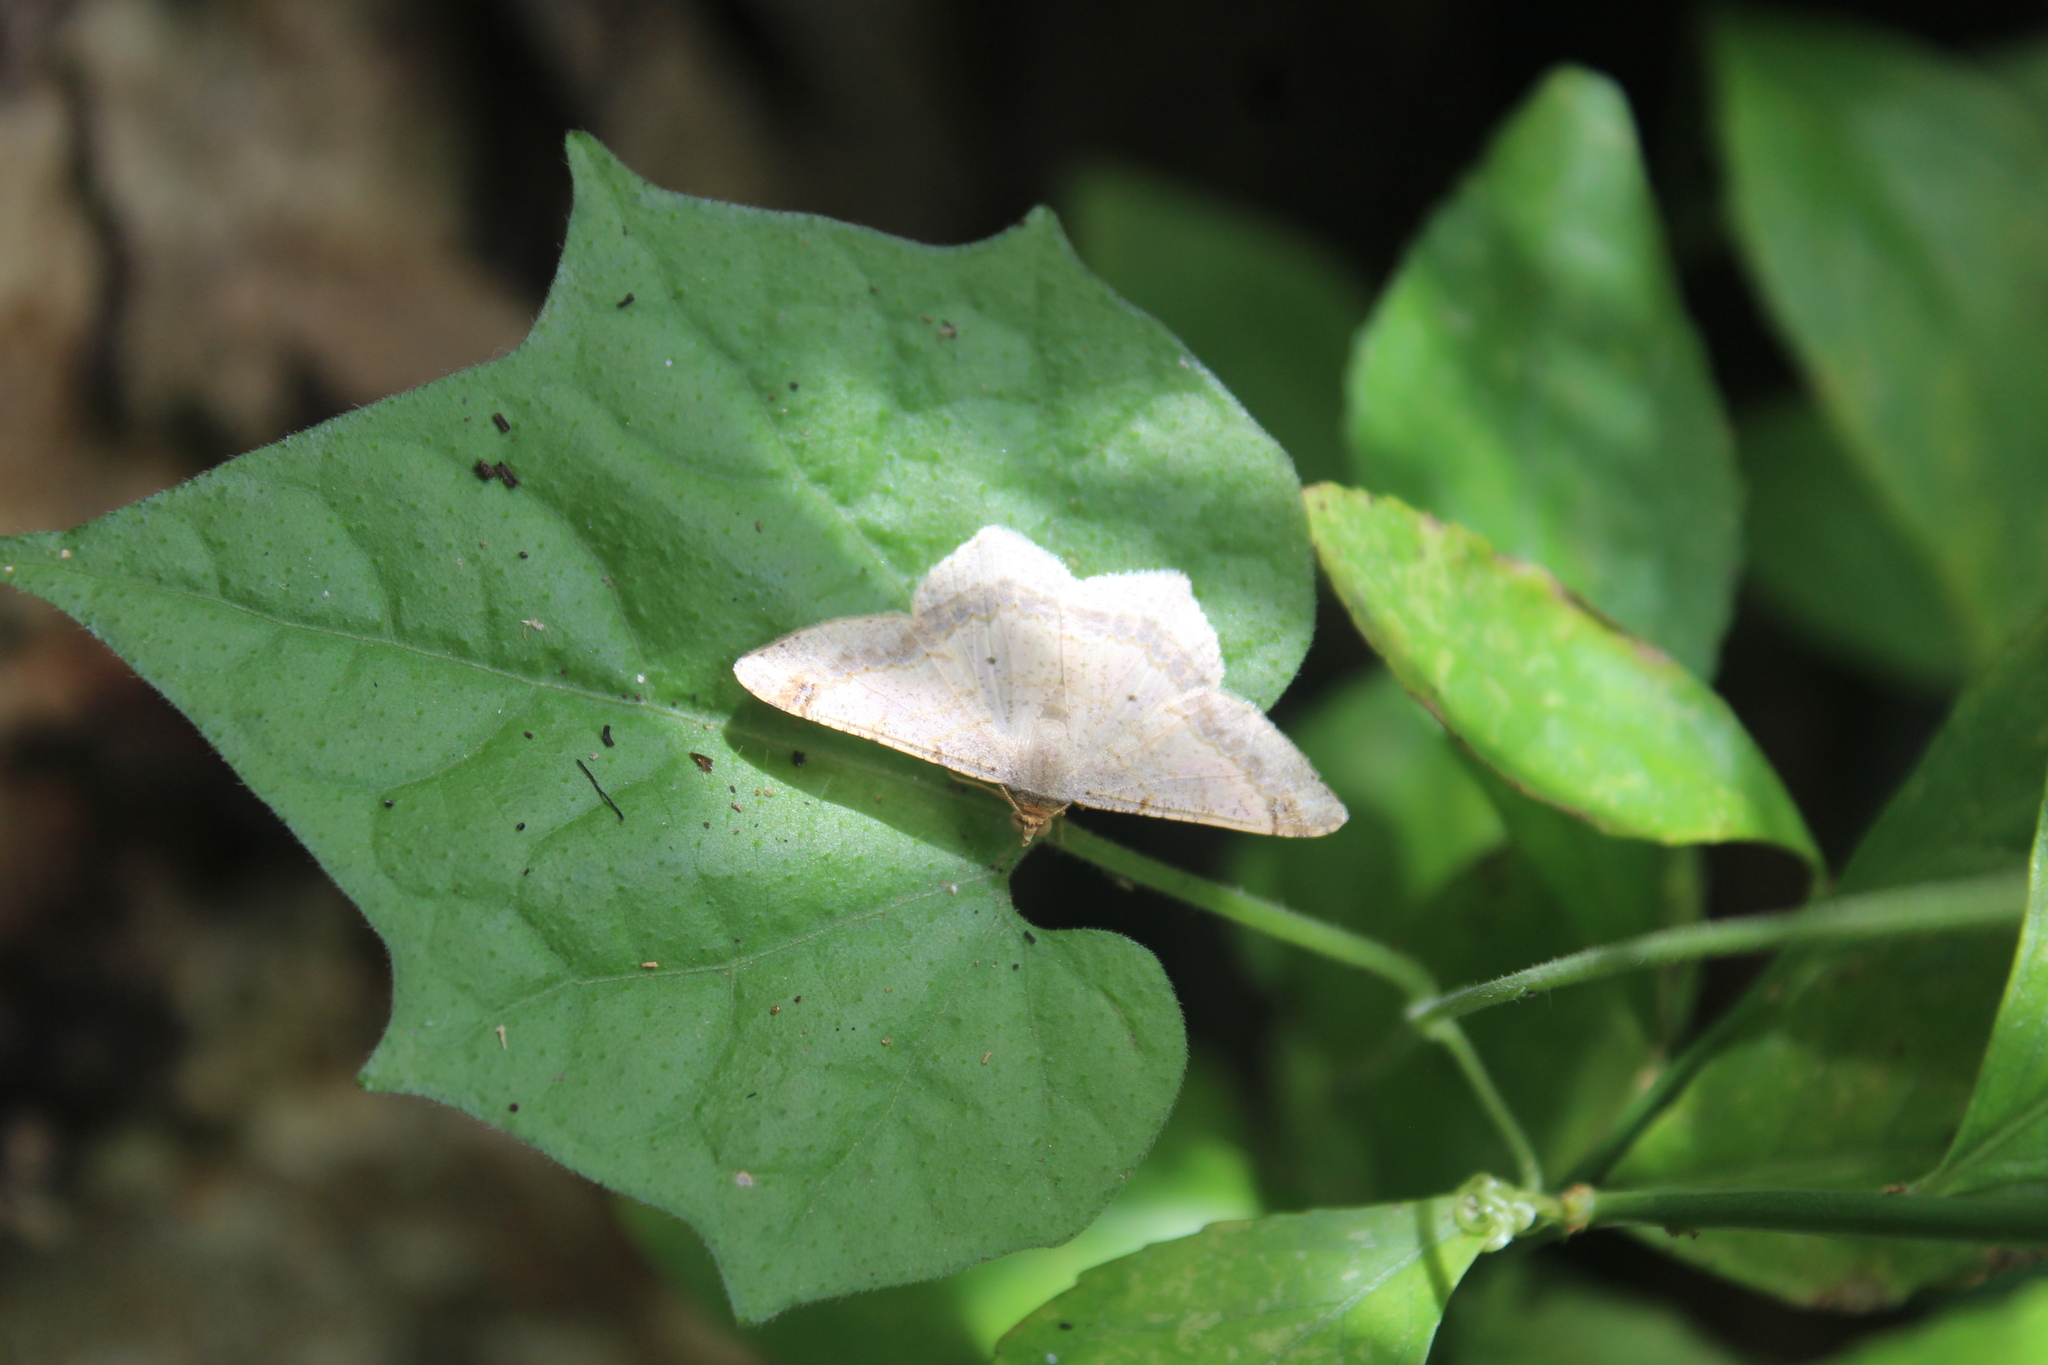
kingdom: Animalia
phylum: Arthropoda
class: Insecta
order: Lepidoptera
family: Geometridae
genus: Macaria
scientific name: Macaria abydata
